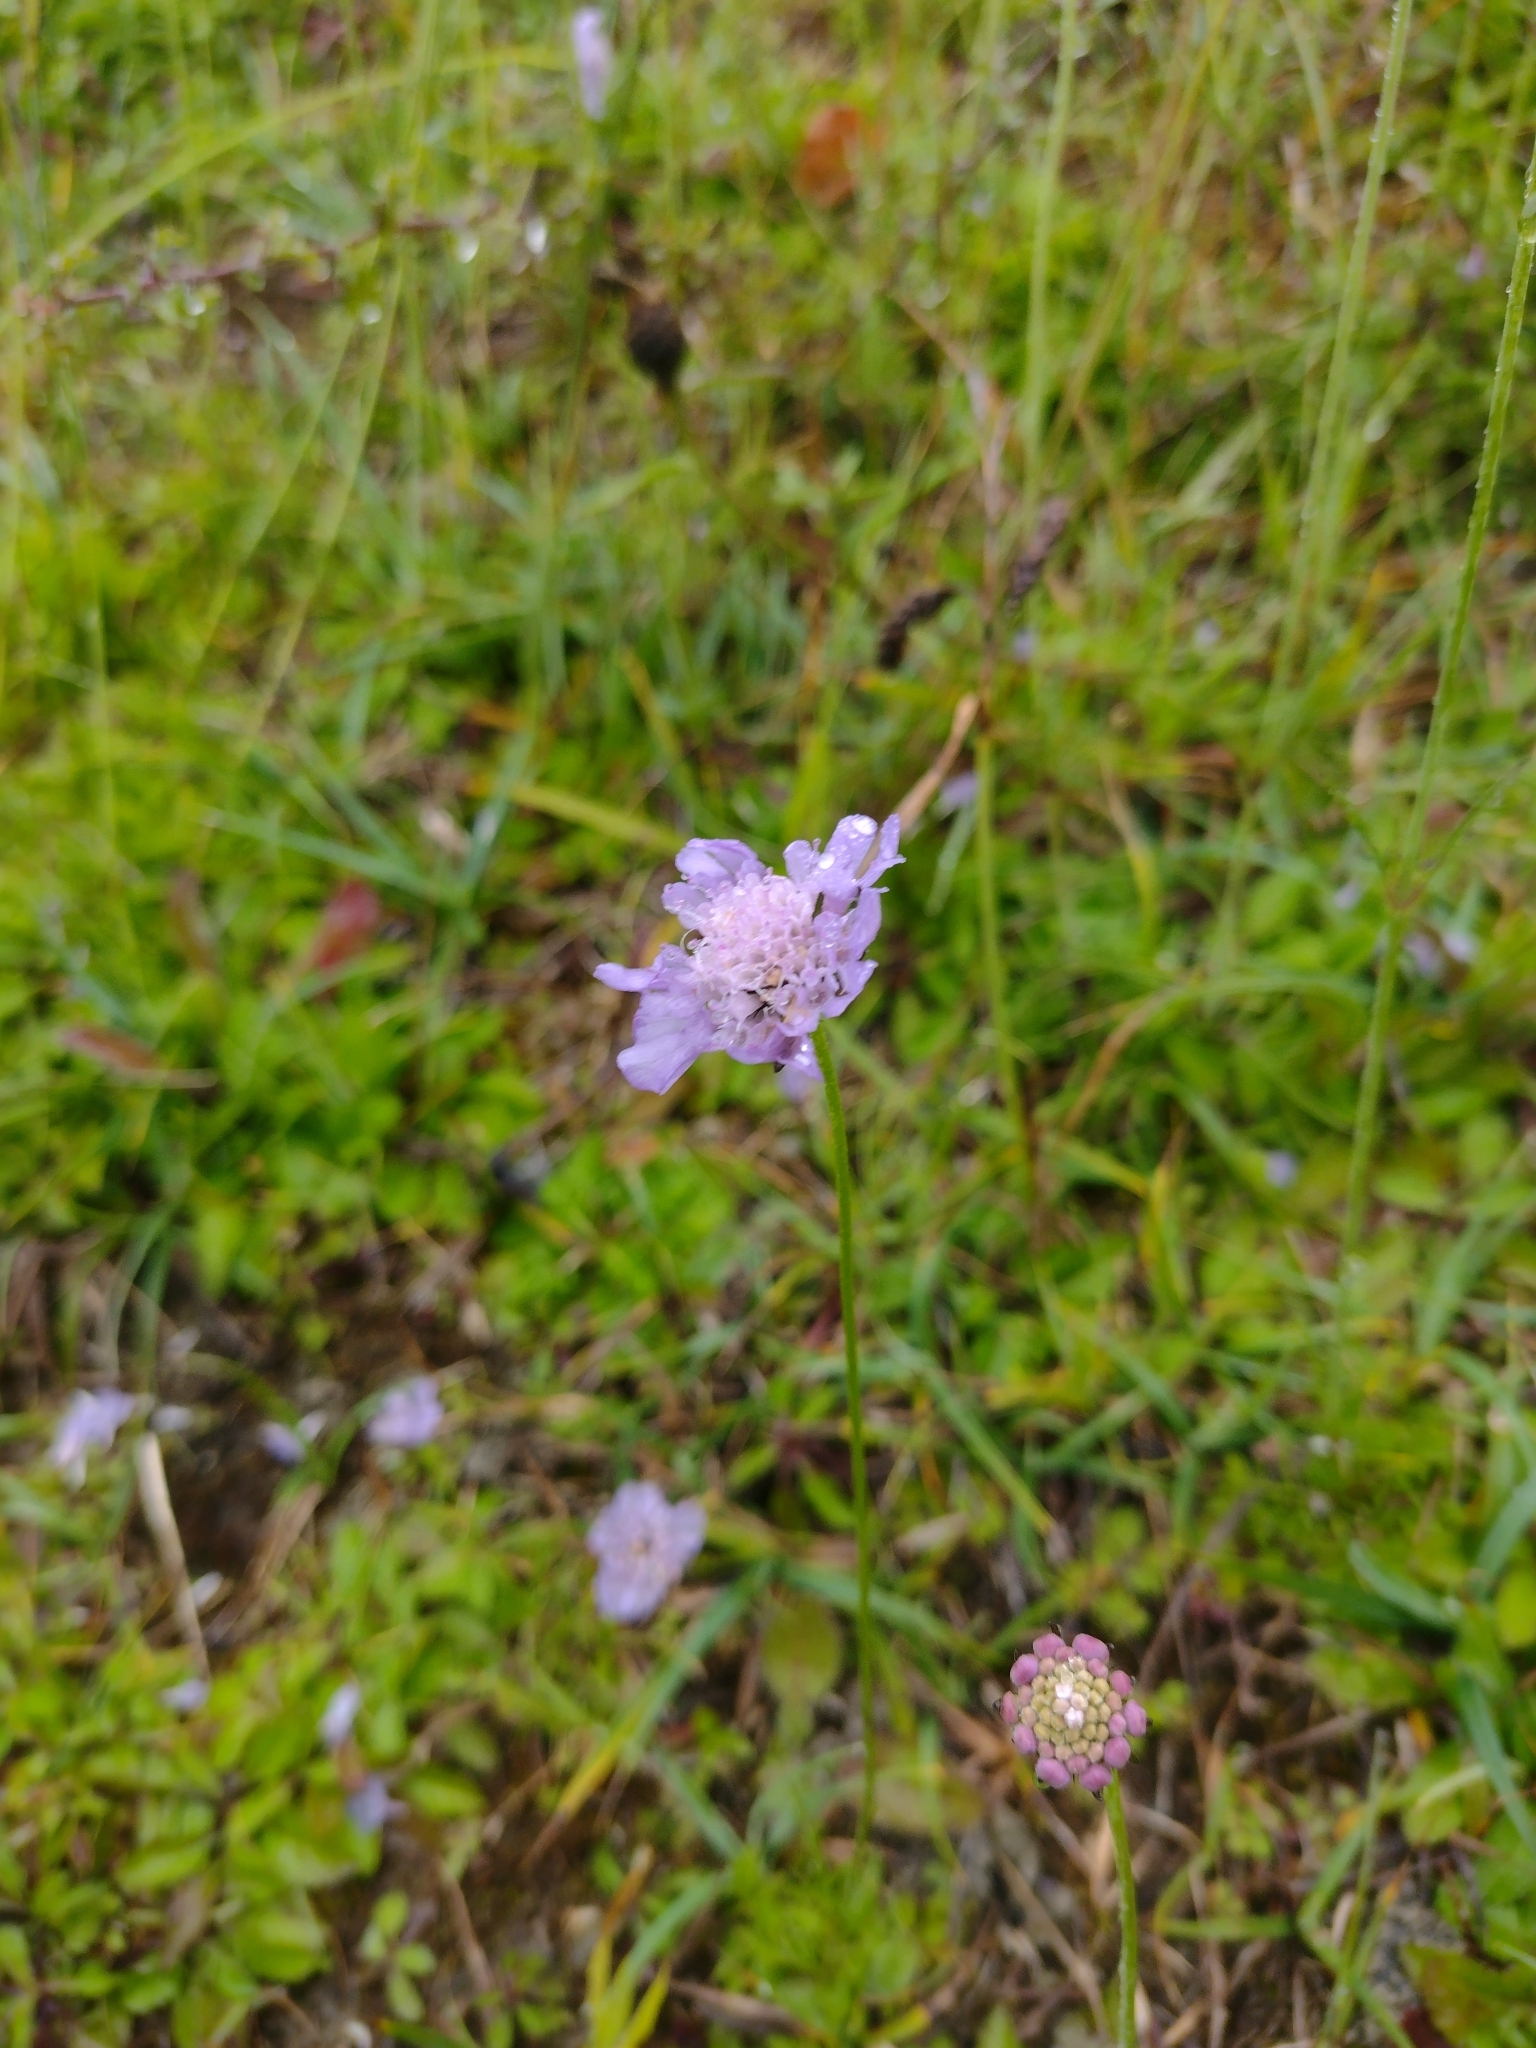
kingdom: Plantae
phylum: Tracheophyta
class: Magnoliopsida
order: Dipsacales
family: Caprifoliaceae
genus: Knautia
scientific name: Knautia arvensis
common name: Field scabiosa
